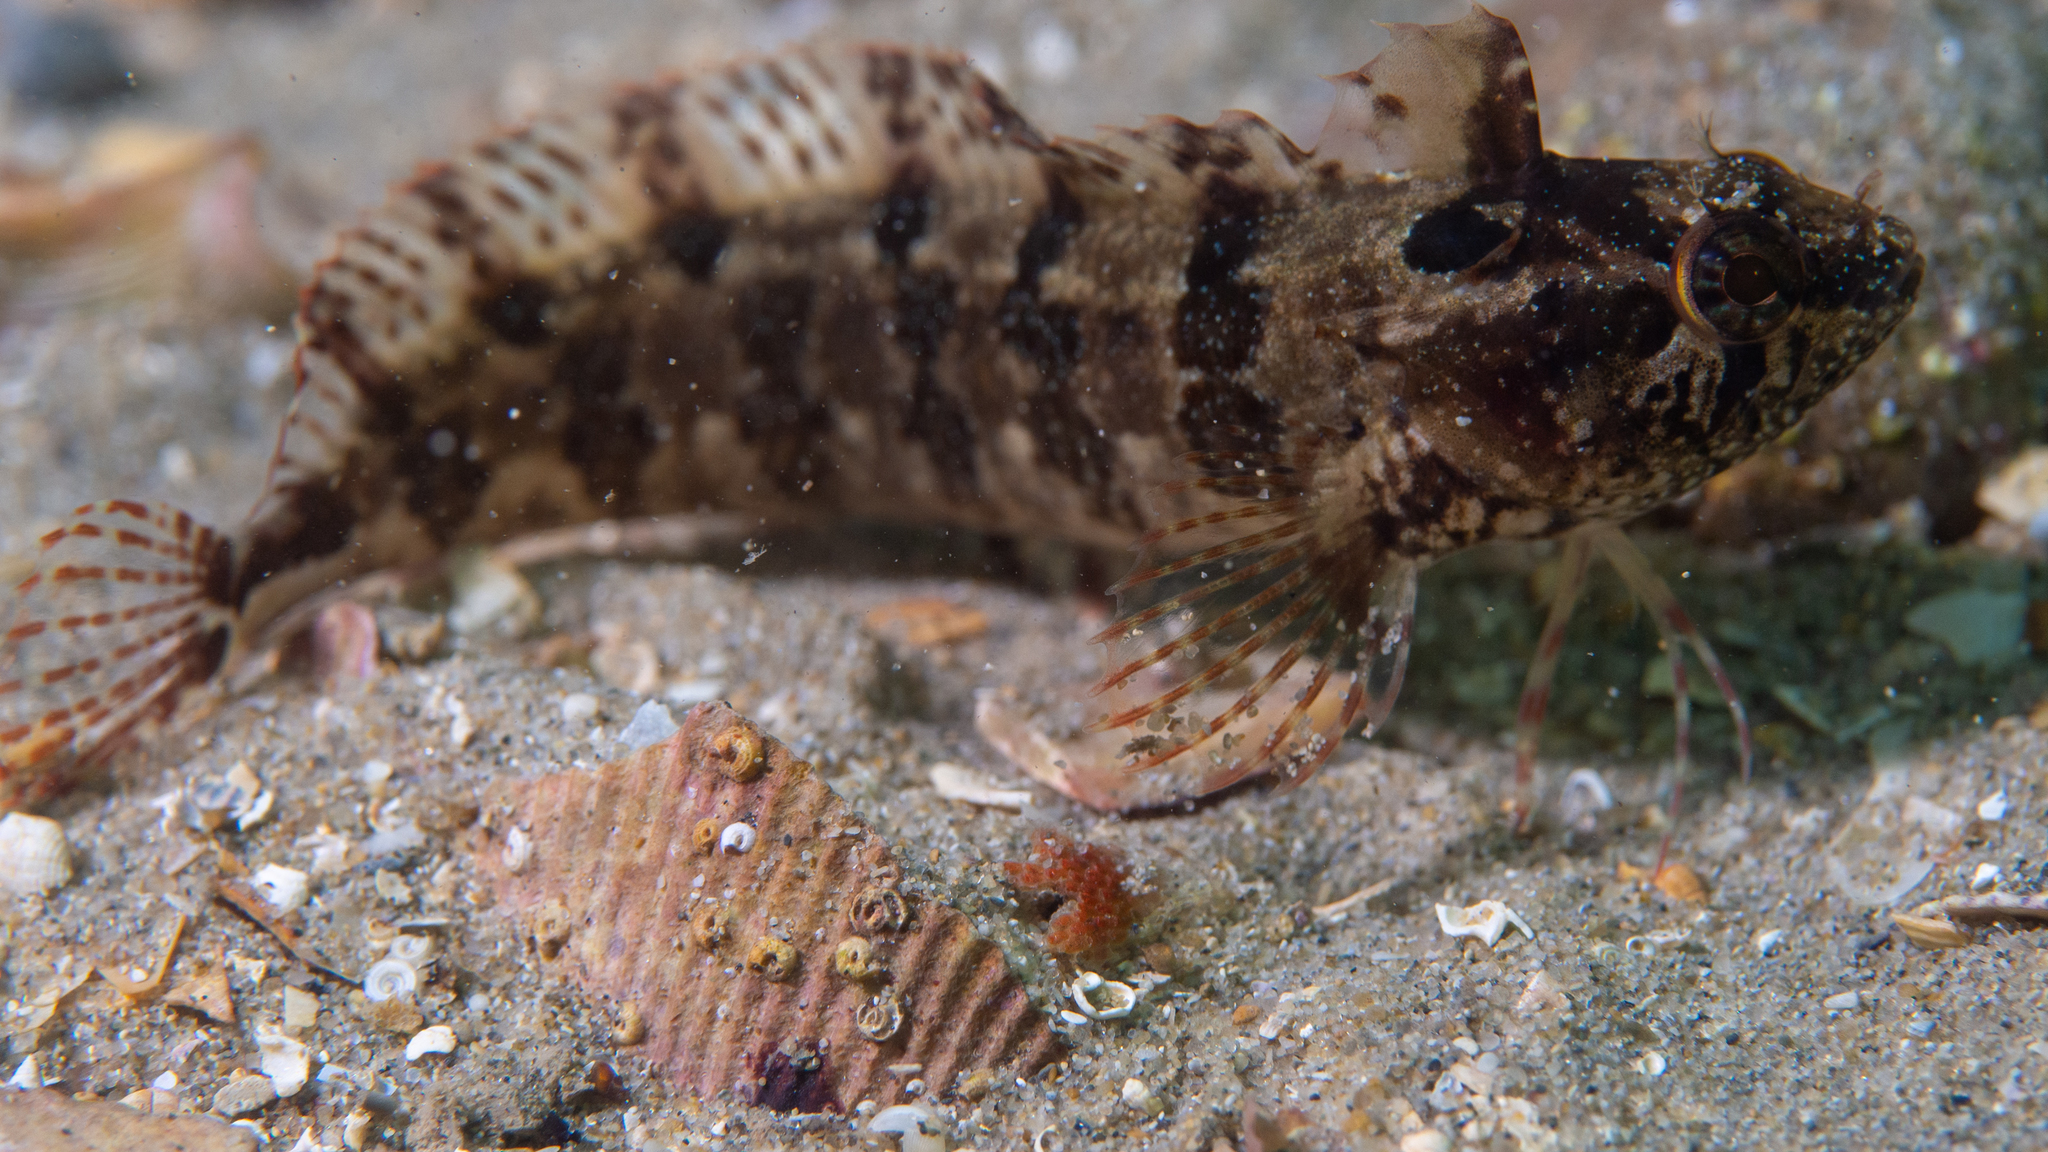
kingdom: Animalia
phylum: Chordata
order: Perciformes
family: Clinidae
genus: Heteroclinus
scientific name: Heteroclinus perspicillatus
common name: Common weedfish
